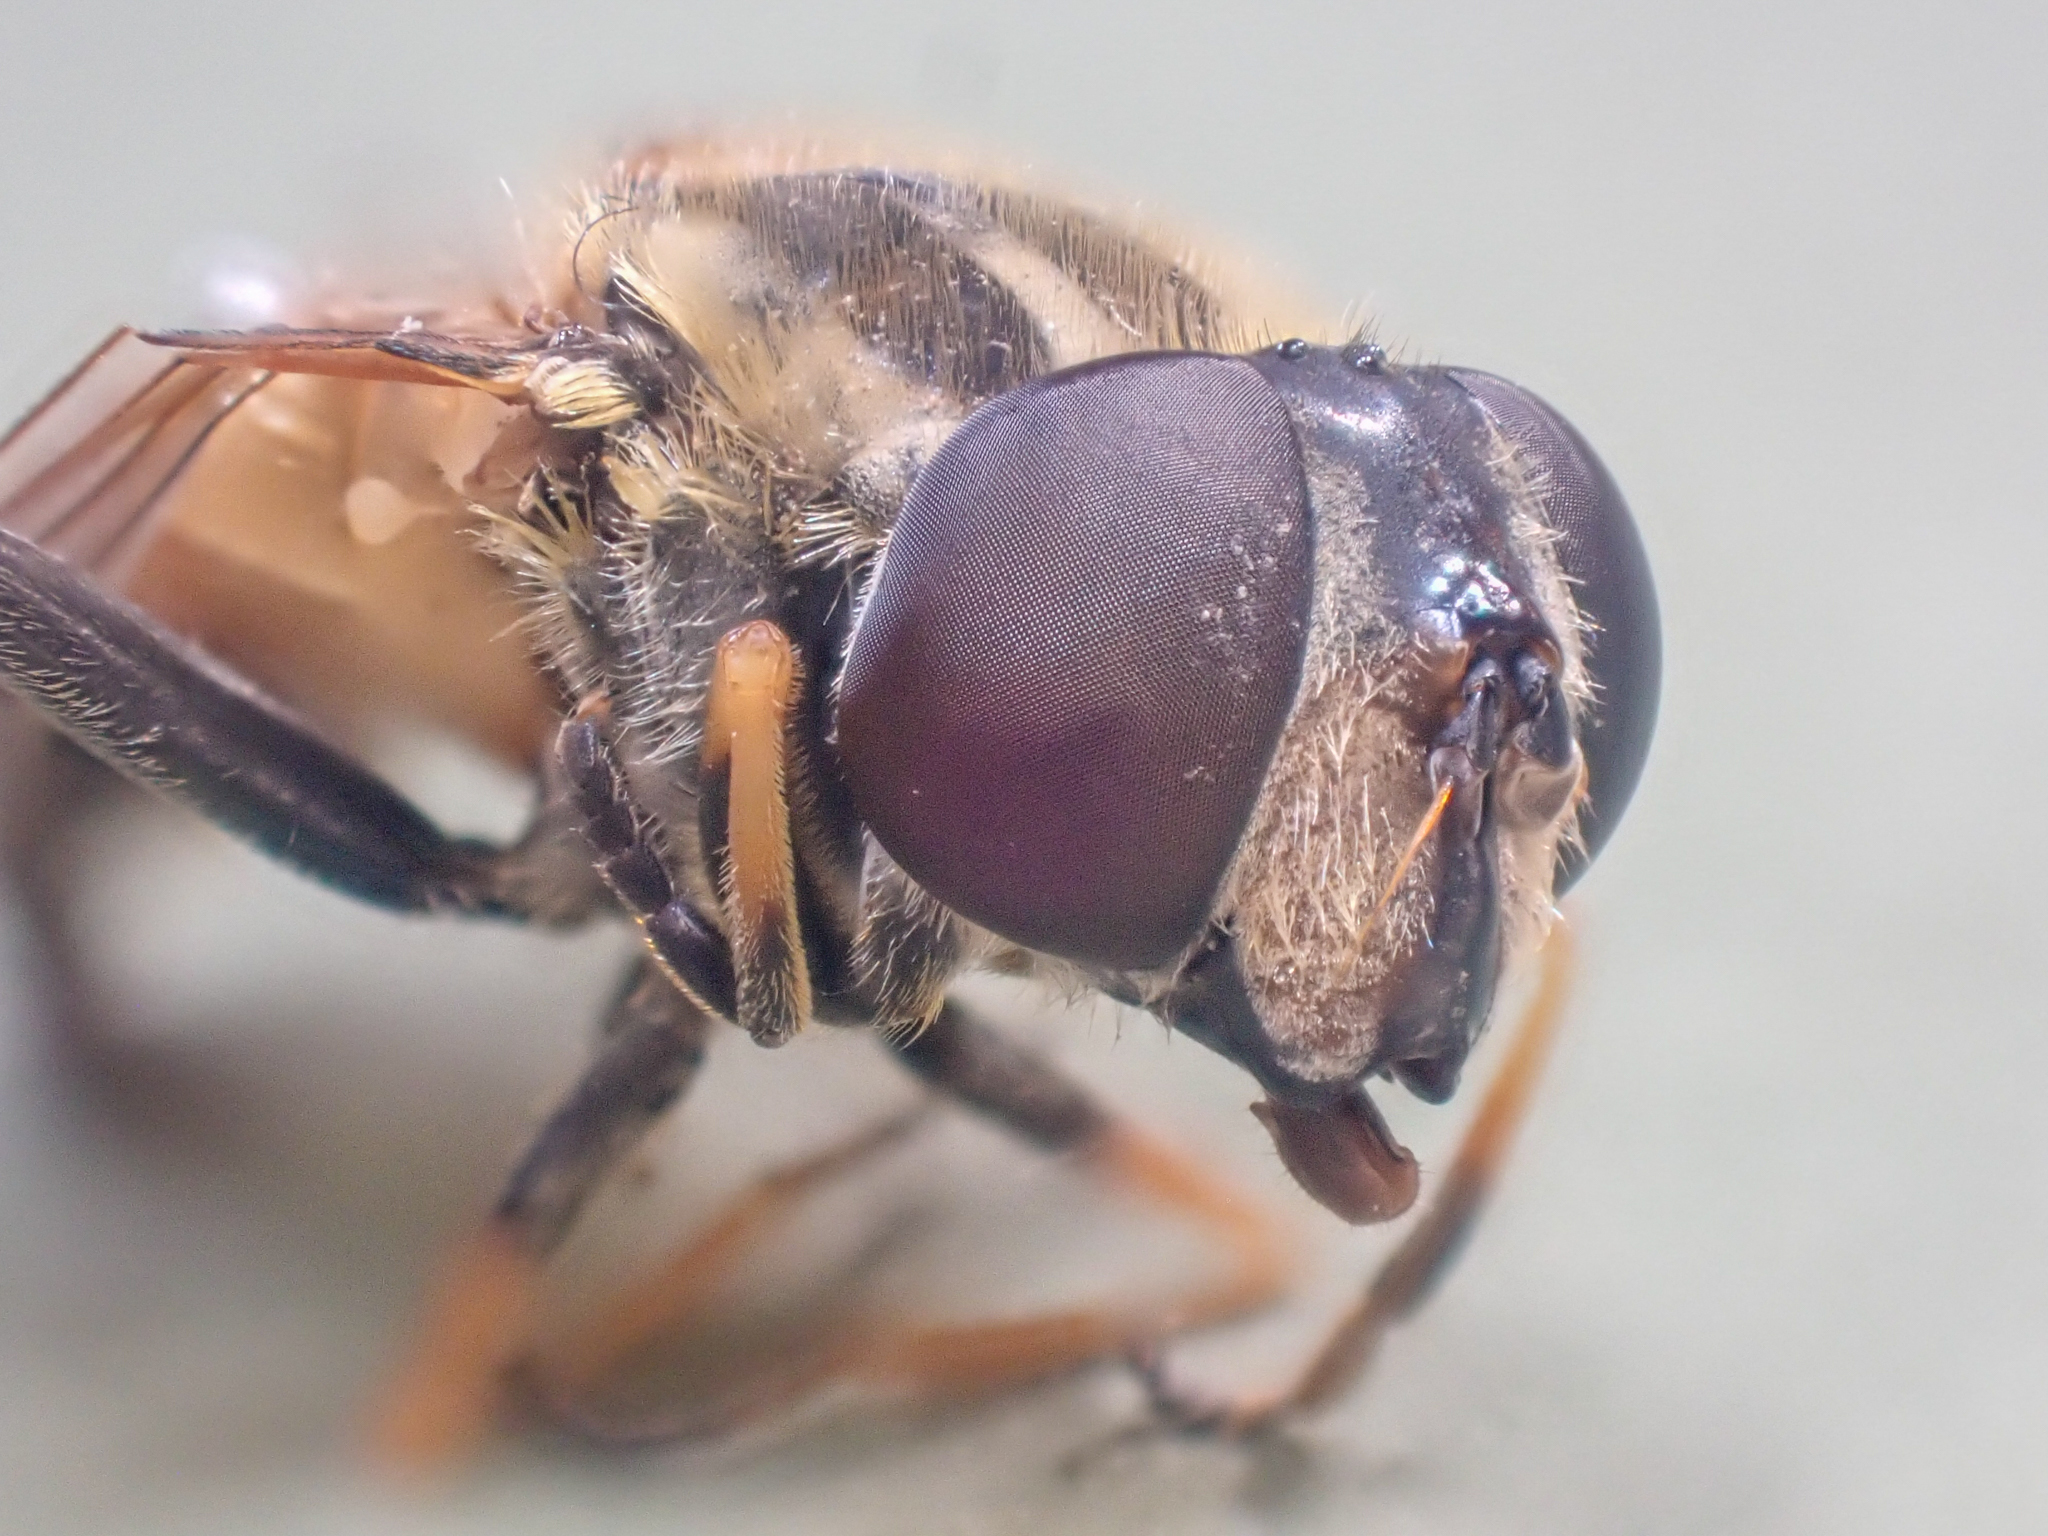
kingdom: Animalia
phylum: Arthropoda
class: Insecta
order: Diptera
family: Syrphidae
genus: Helophilus
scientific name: Helophilus hybridus
